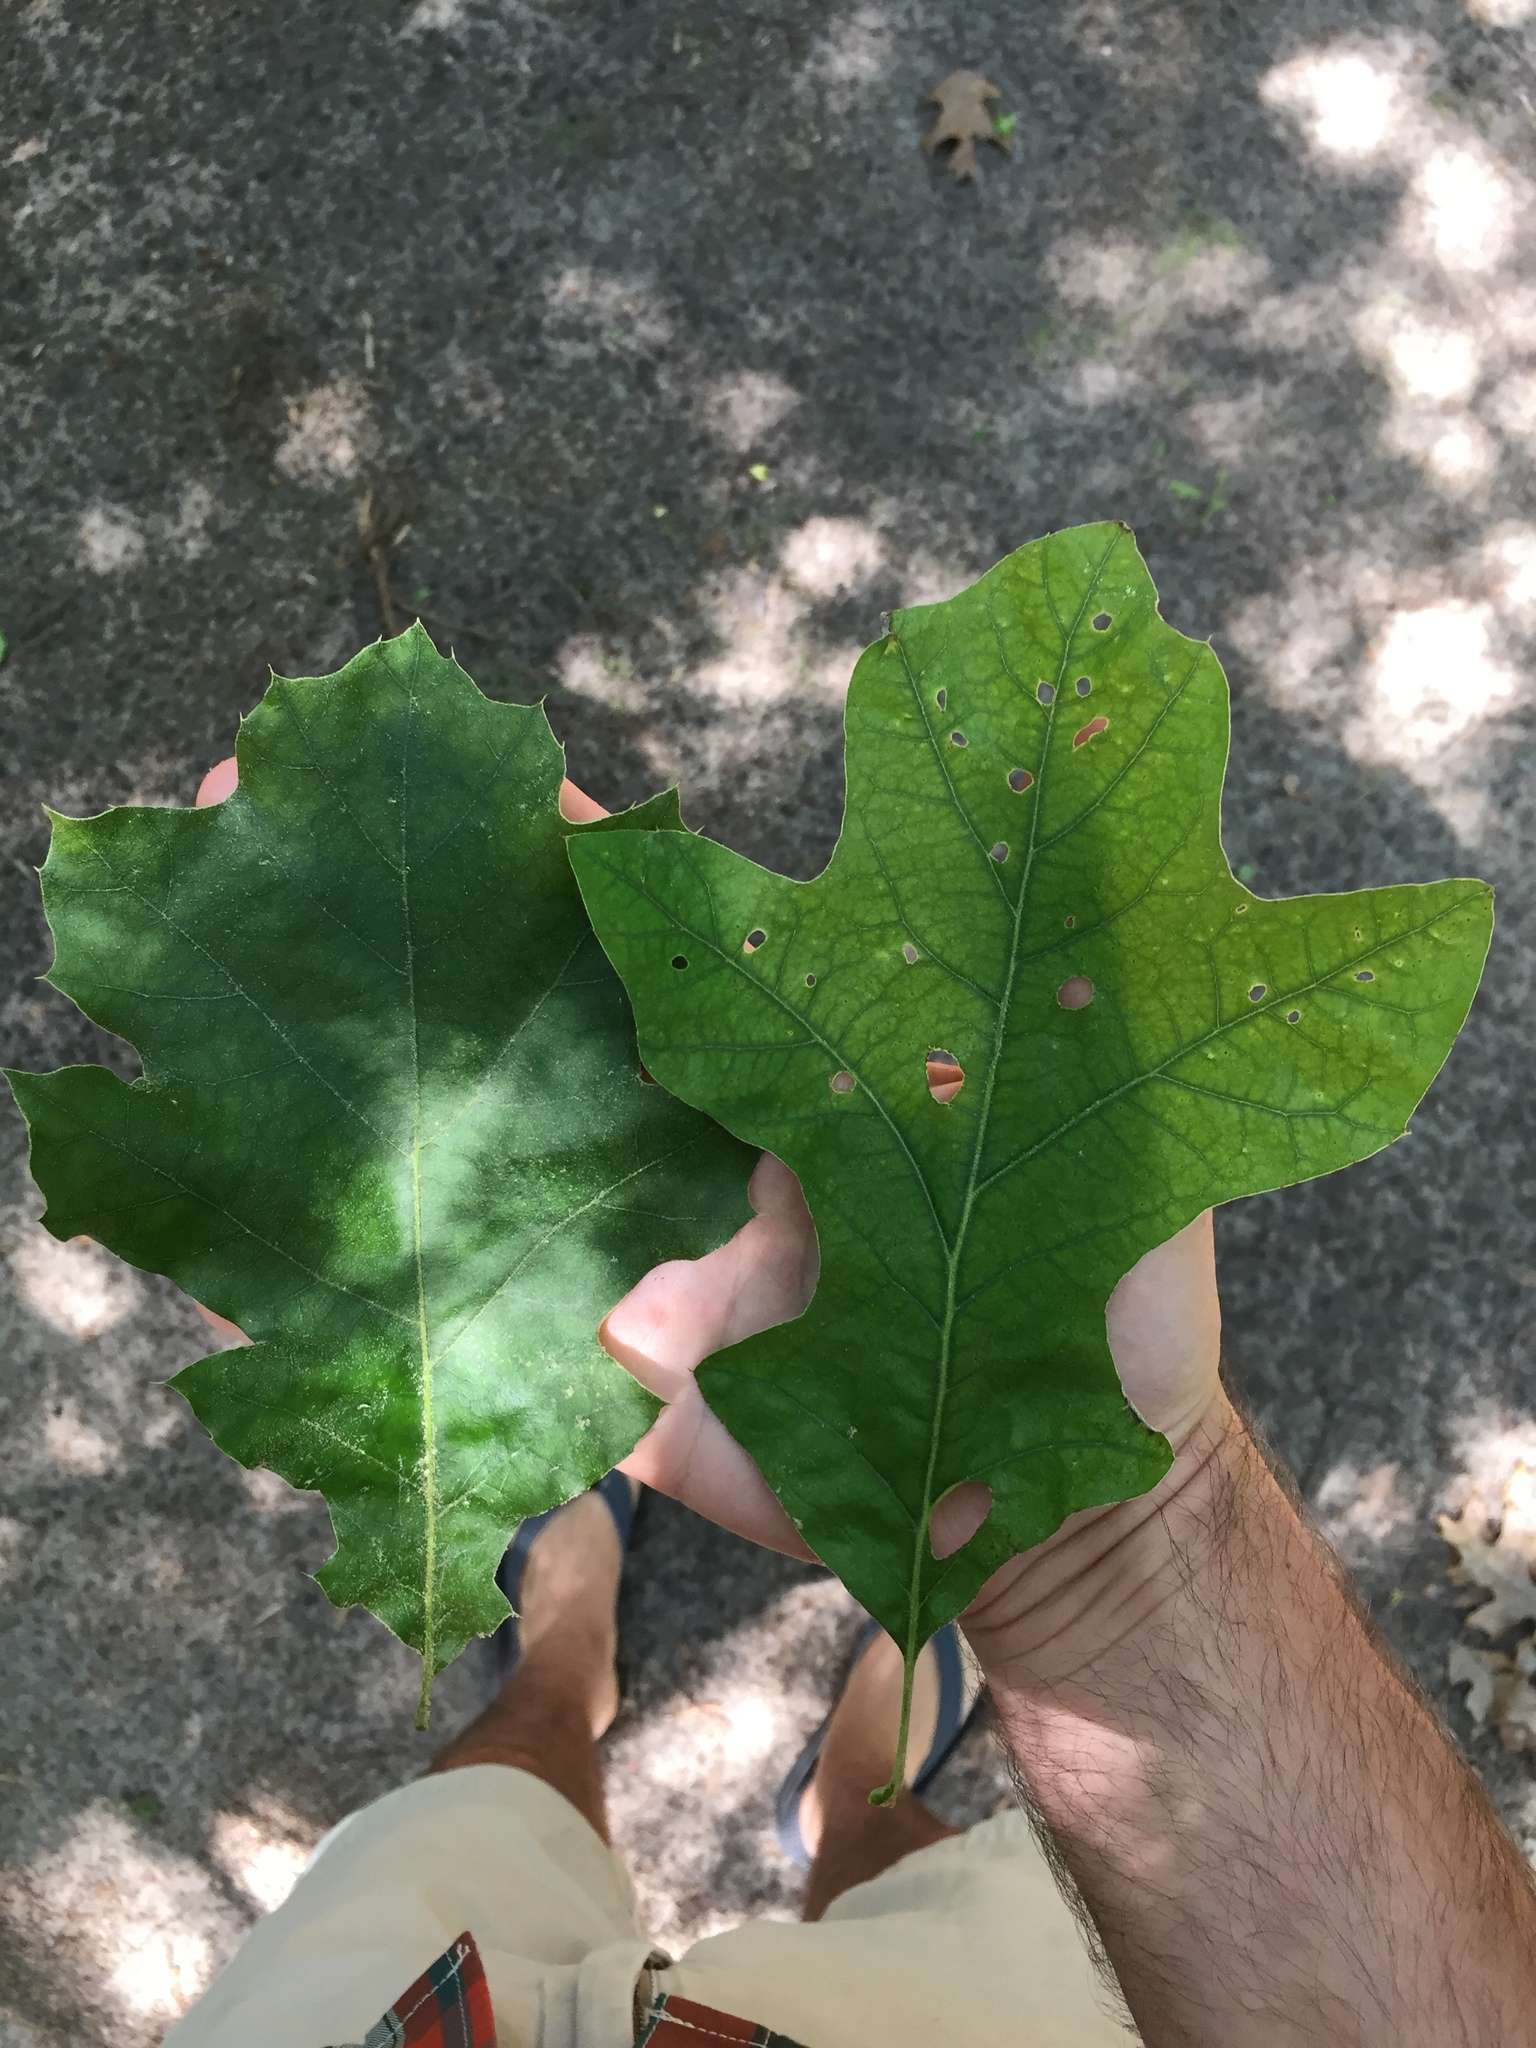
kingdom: Plantae
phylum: Tracheophyta
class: Magnoliopsida
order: Fagales
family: Fagaceae
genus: Quercus
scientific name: Quercus ilicifolia
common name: Bear oak
